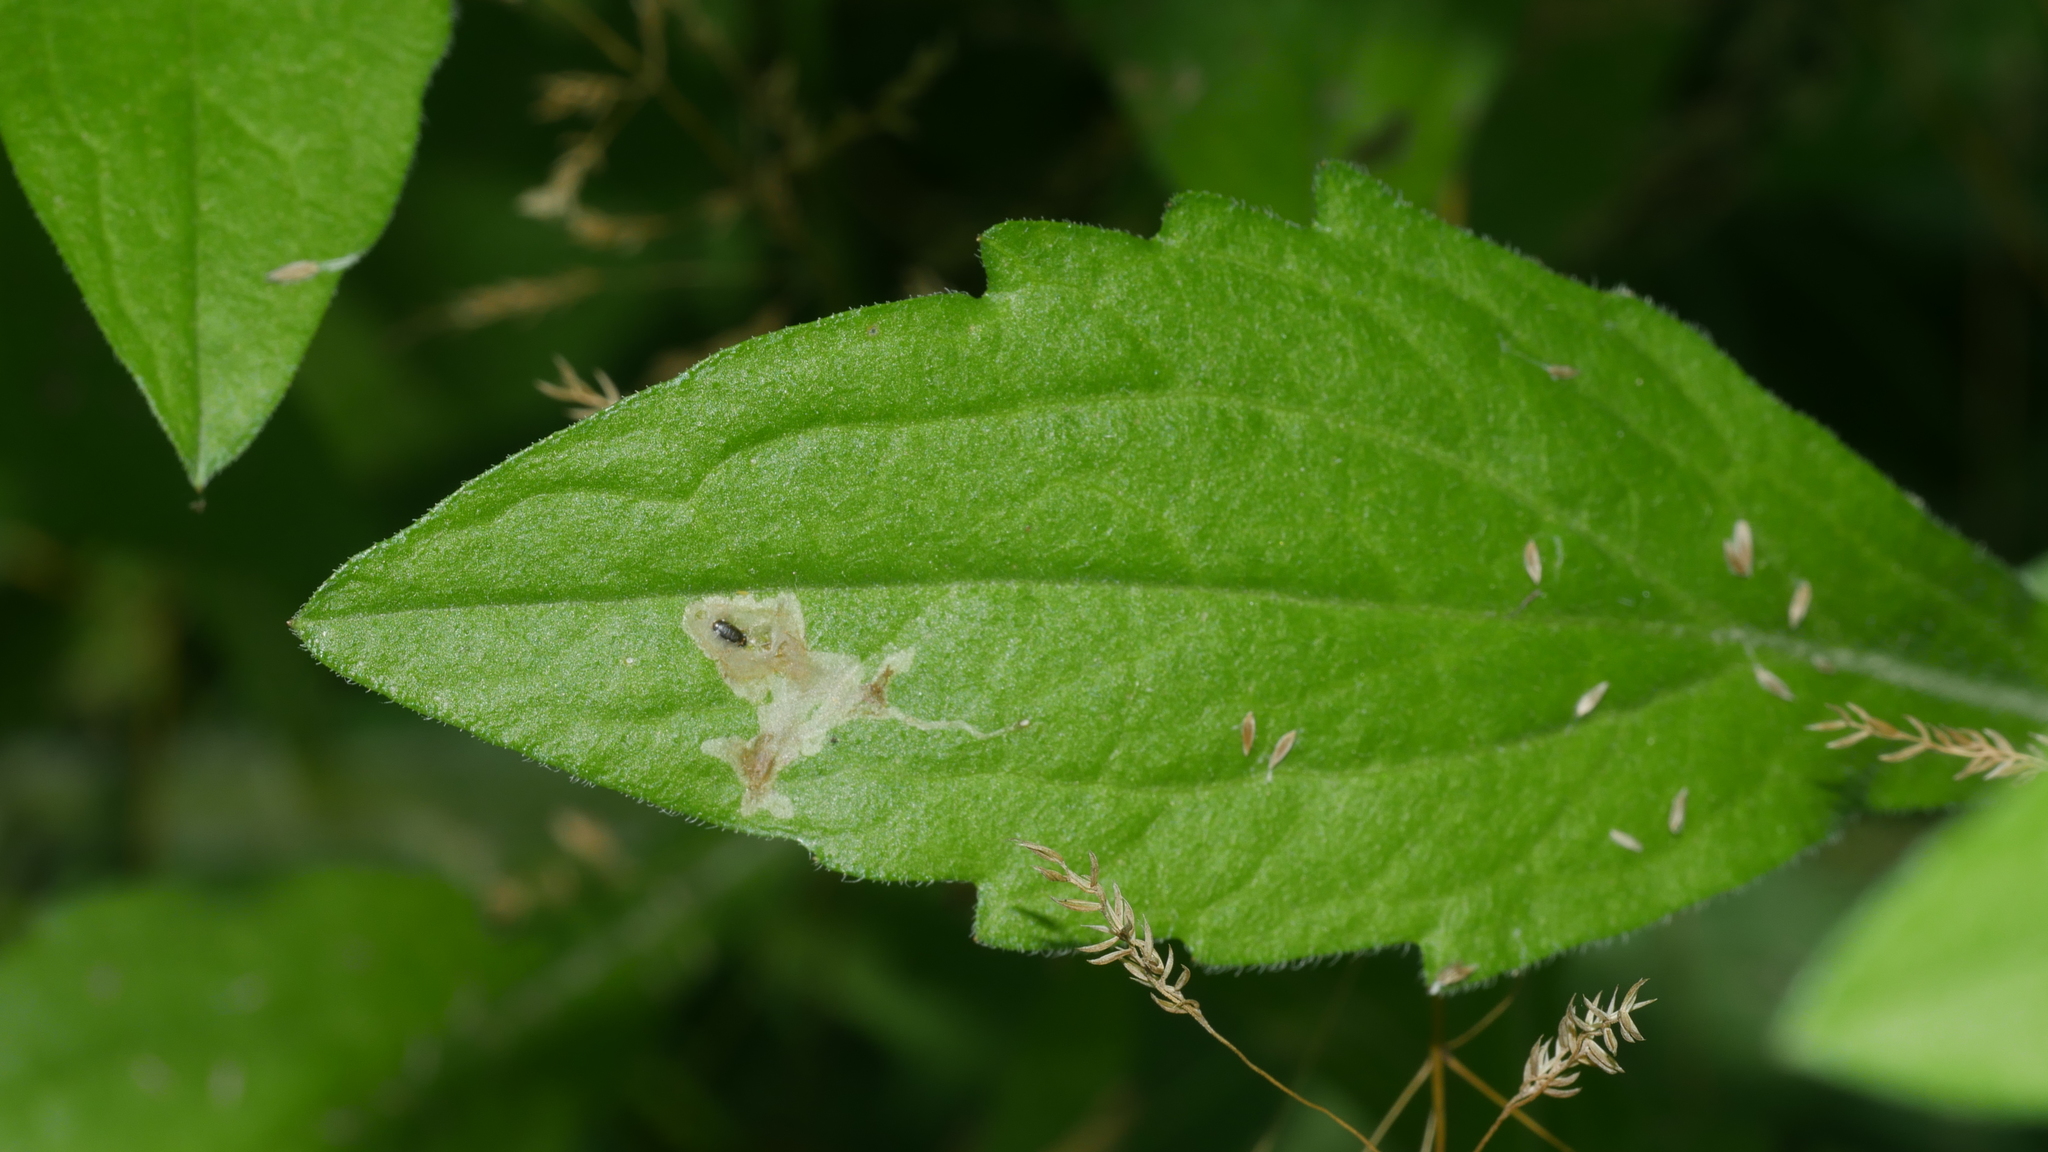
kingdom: Animalia
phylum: Arthropoda
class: Insecta
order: Diptera
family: Agromyzidae
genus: Calycomyza
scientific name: Calycomyza humeralis
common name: Aster leafminer
